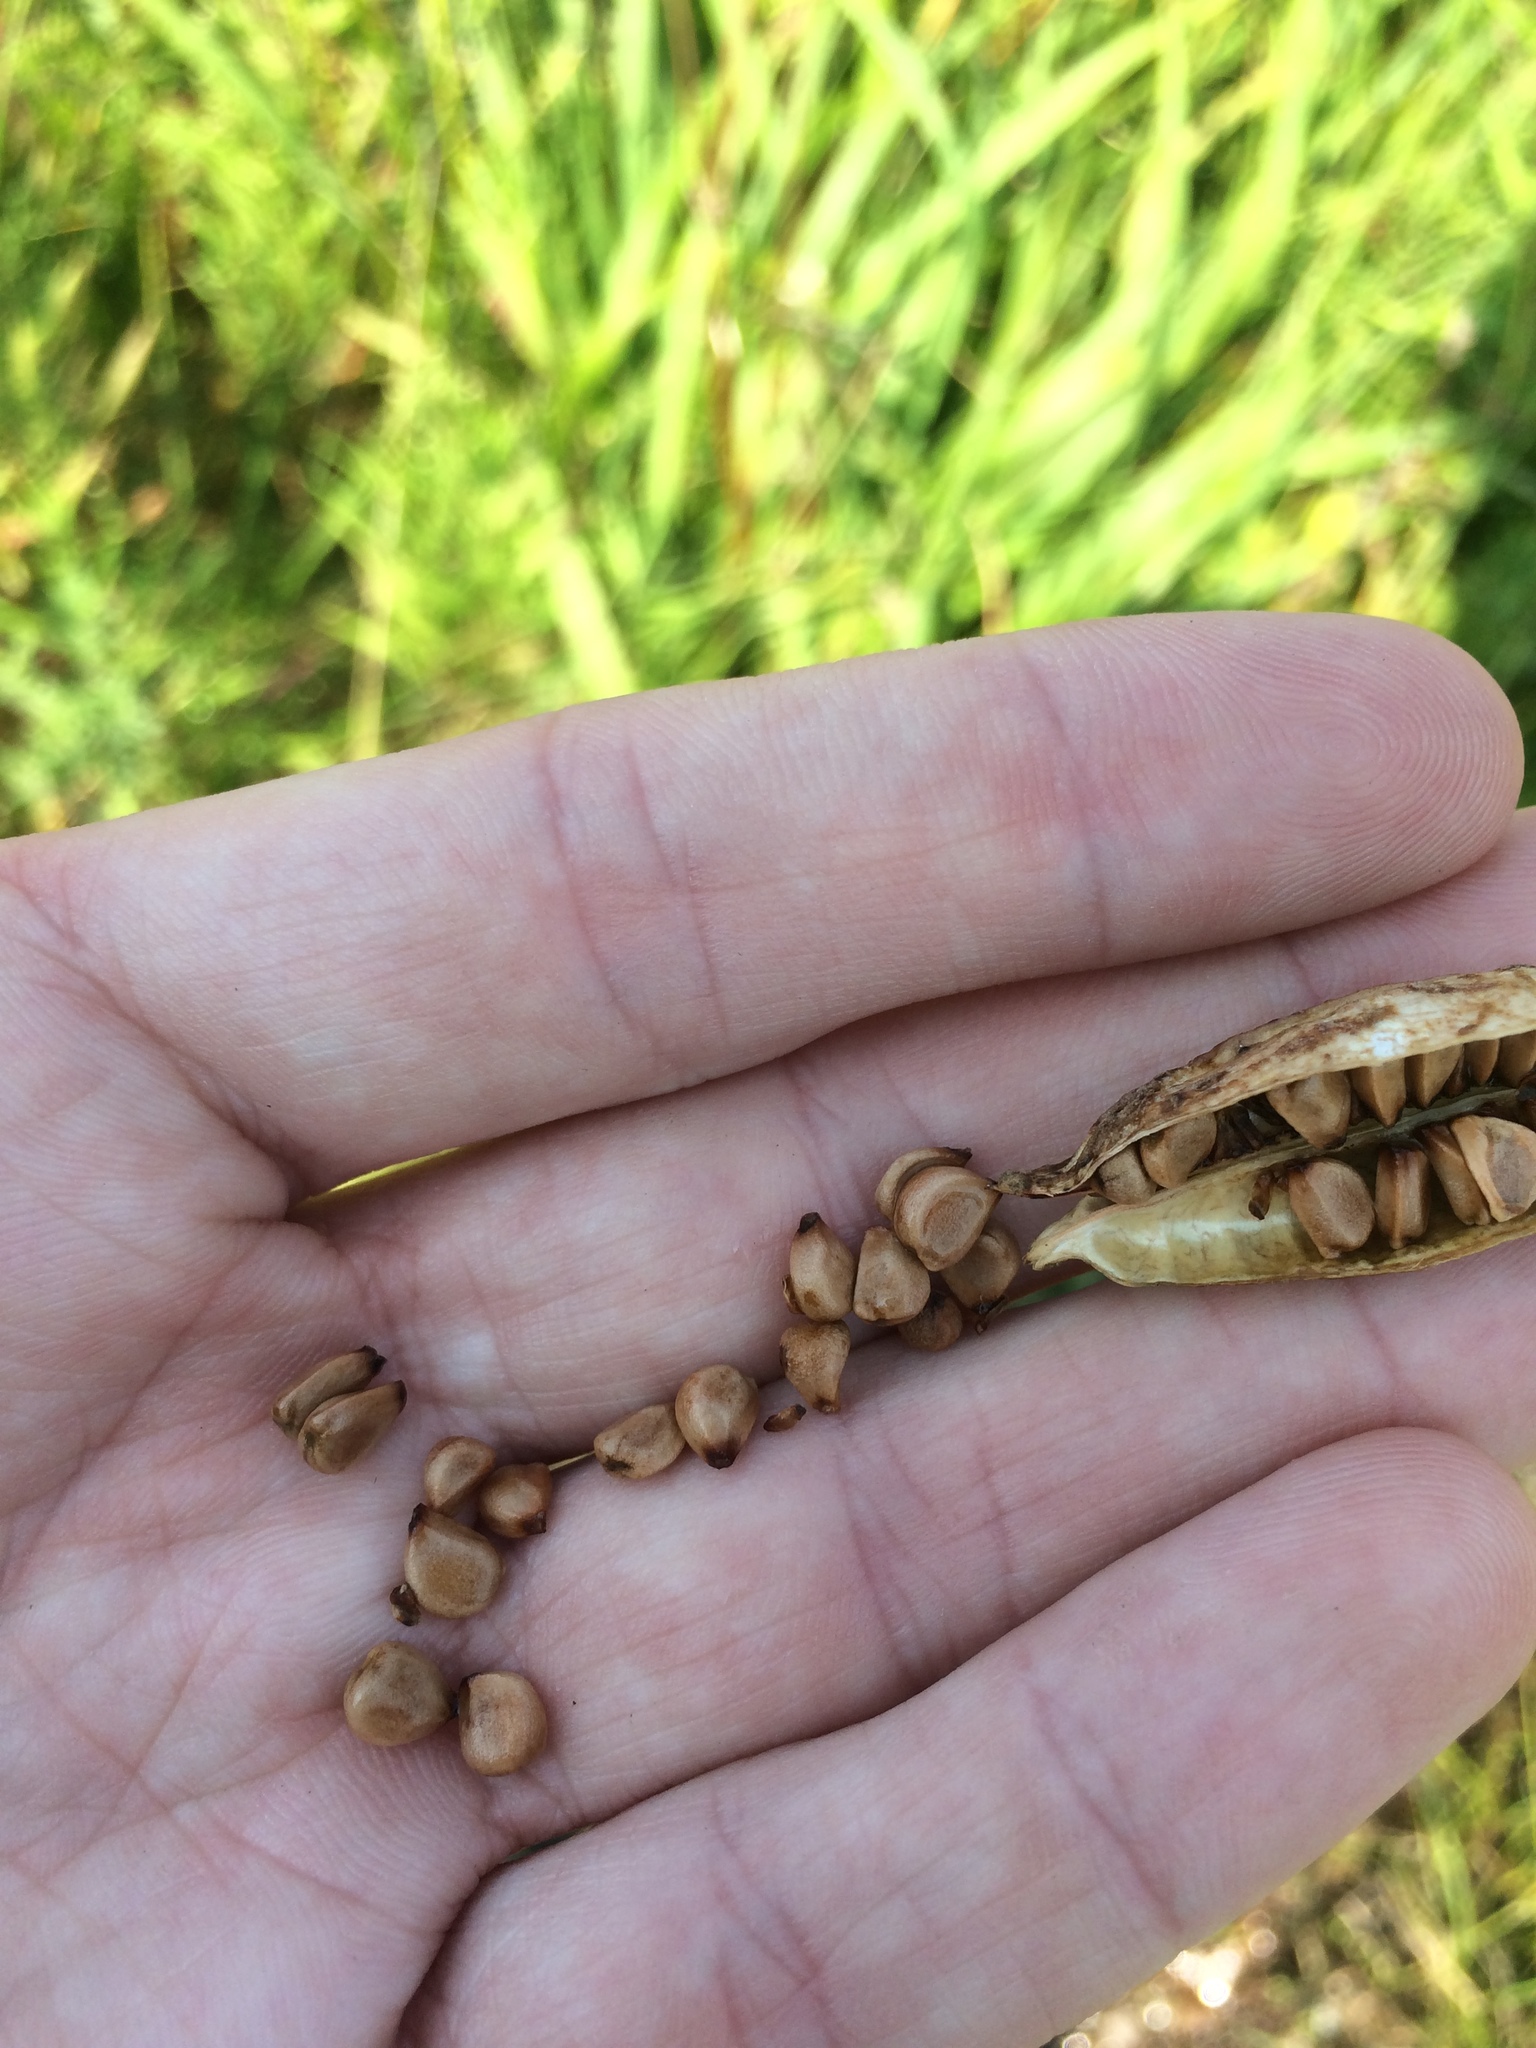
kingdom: Plantae
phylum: Tracheophyta
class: Liliopsida
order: Asparagales
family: Iridaceae
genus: Iris
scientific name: Iris versicolor
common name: Purple iris
